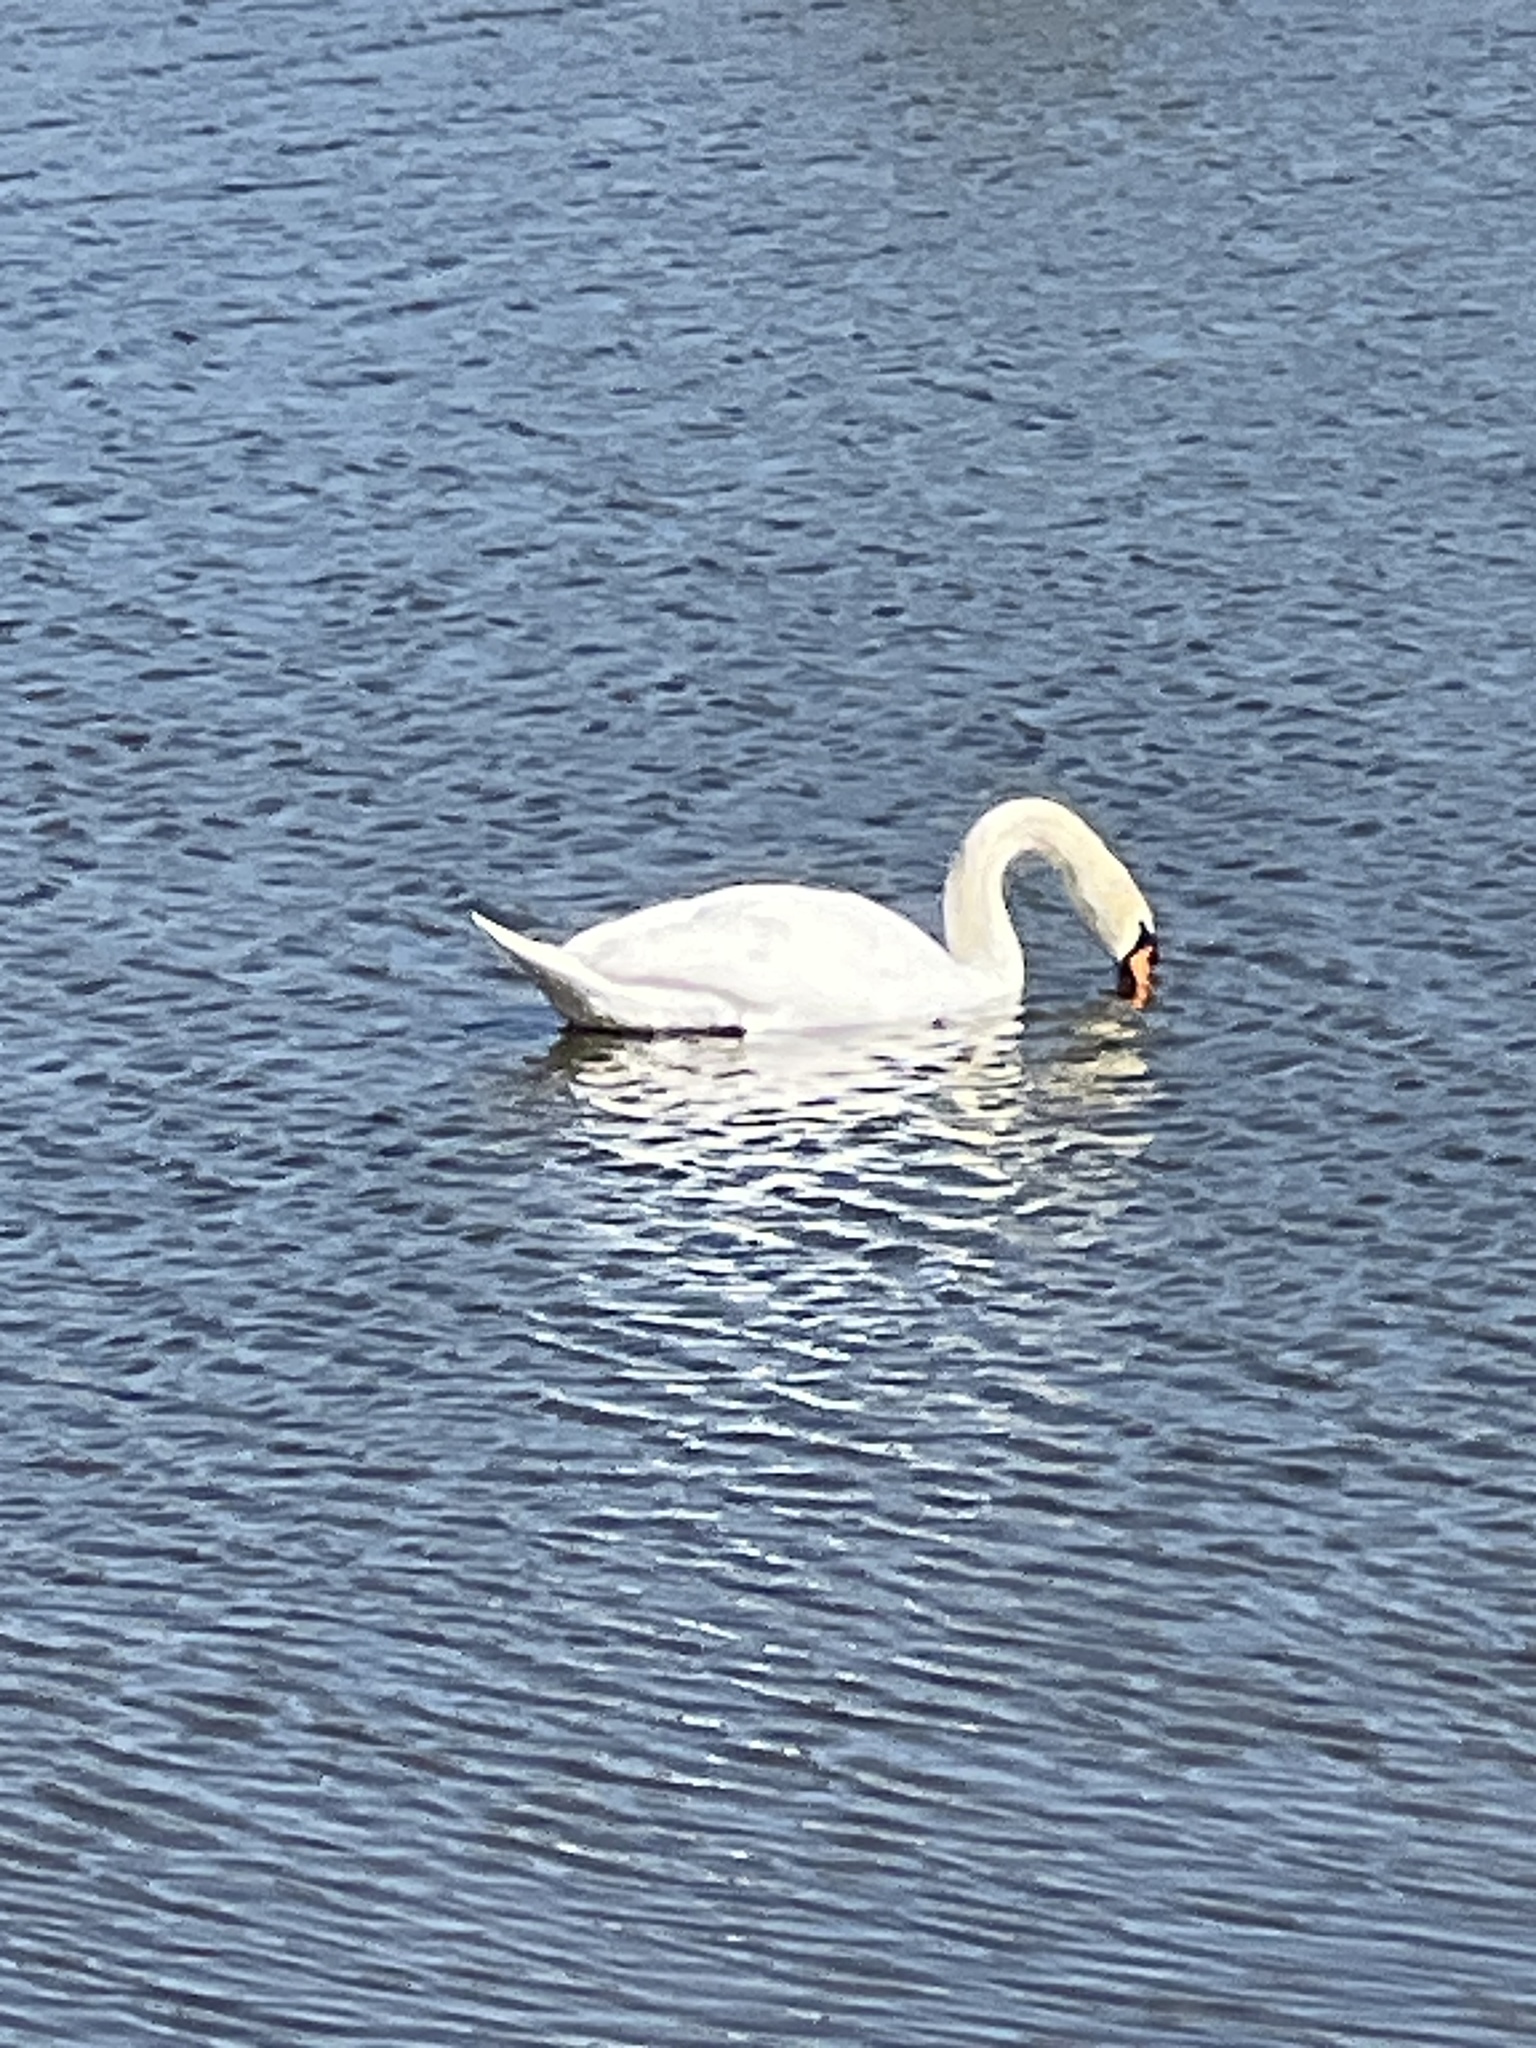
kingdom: Animalia
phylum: Chordata
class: Aves
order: Anseriformes
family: Anatidae
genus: Cygnus
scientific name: Cygnus olor
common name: Mute swan
